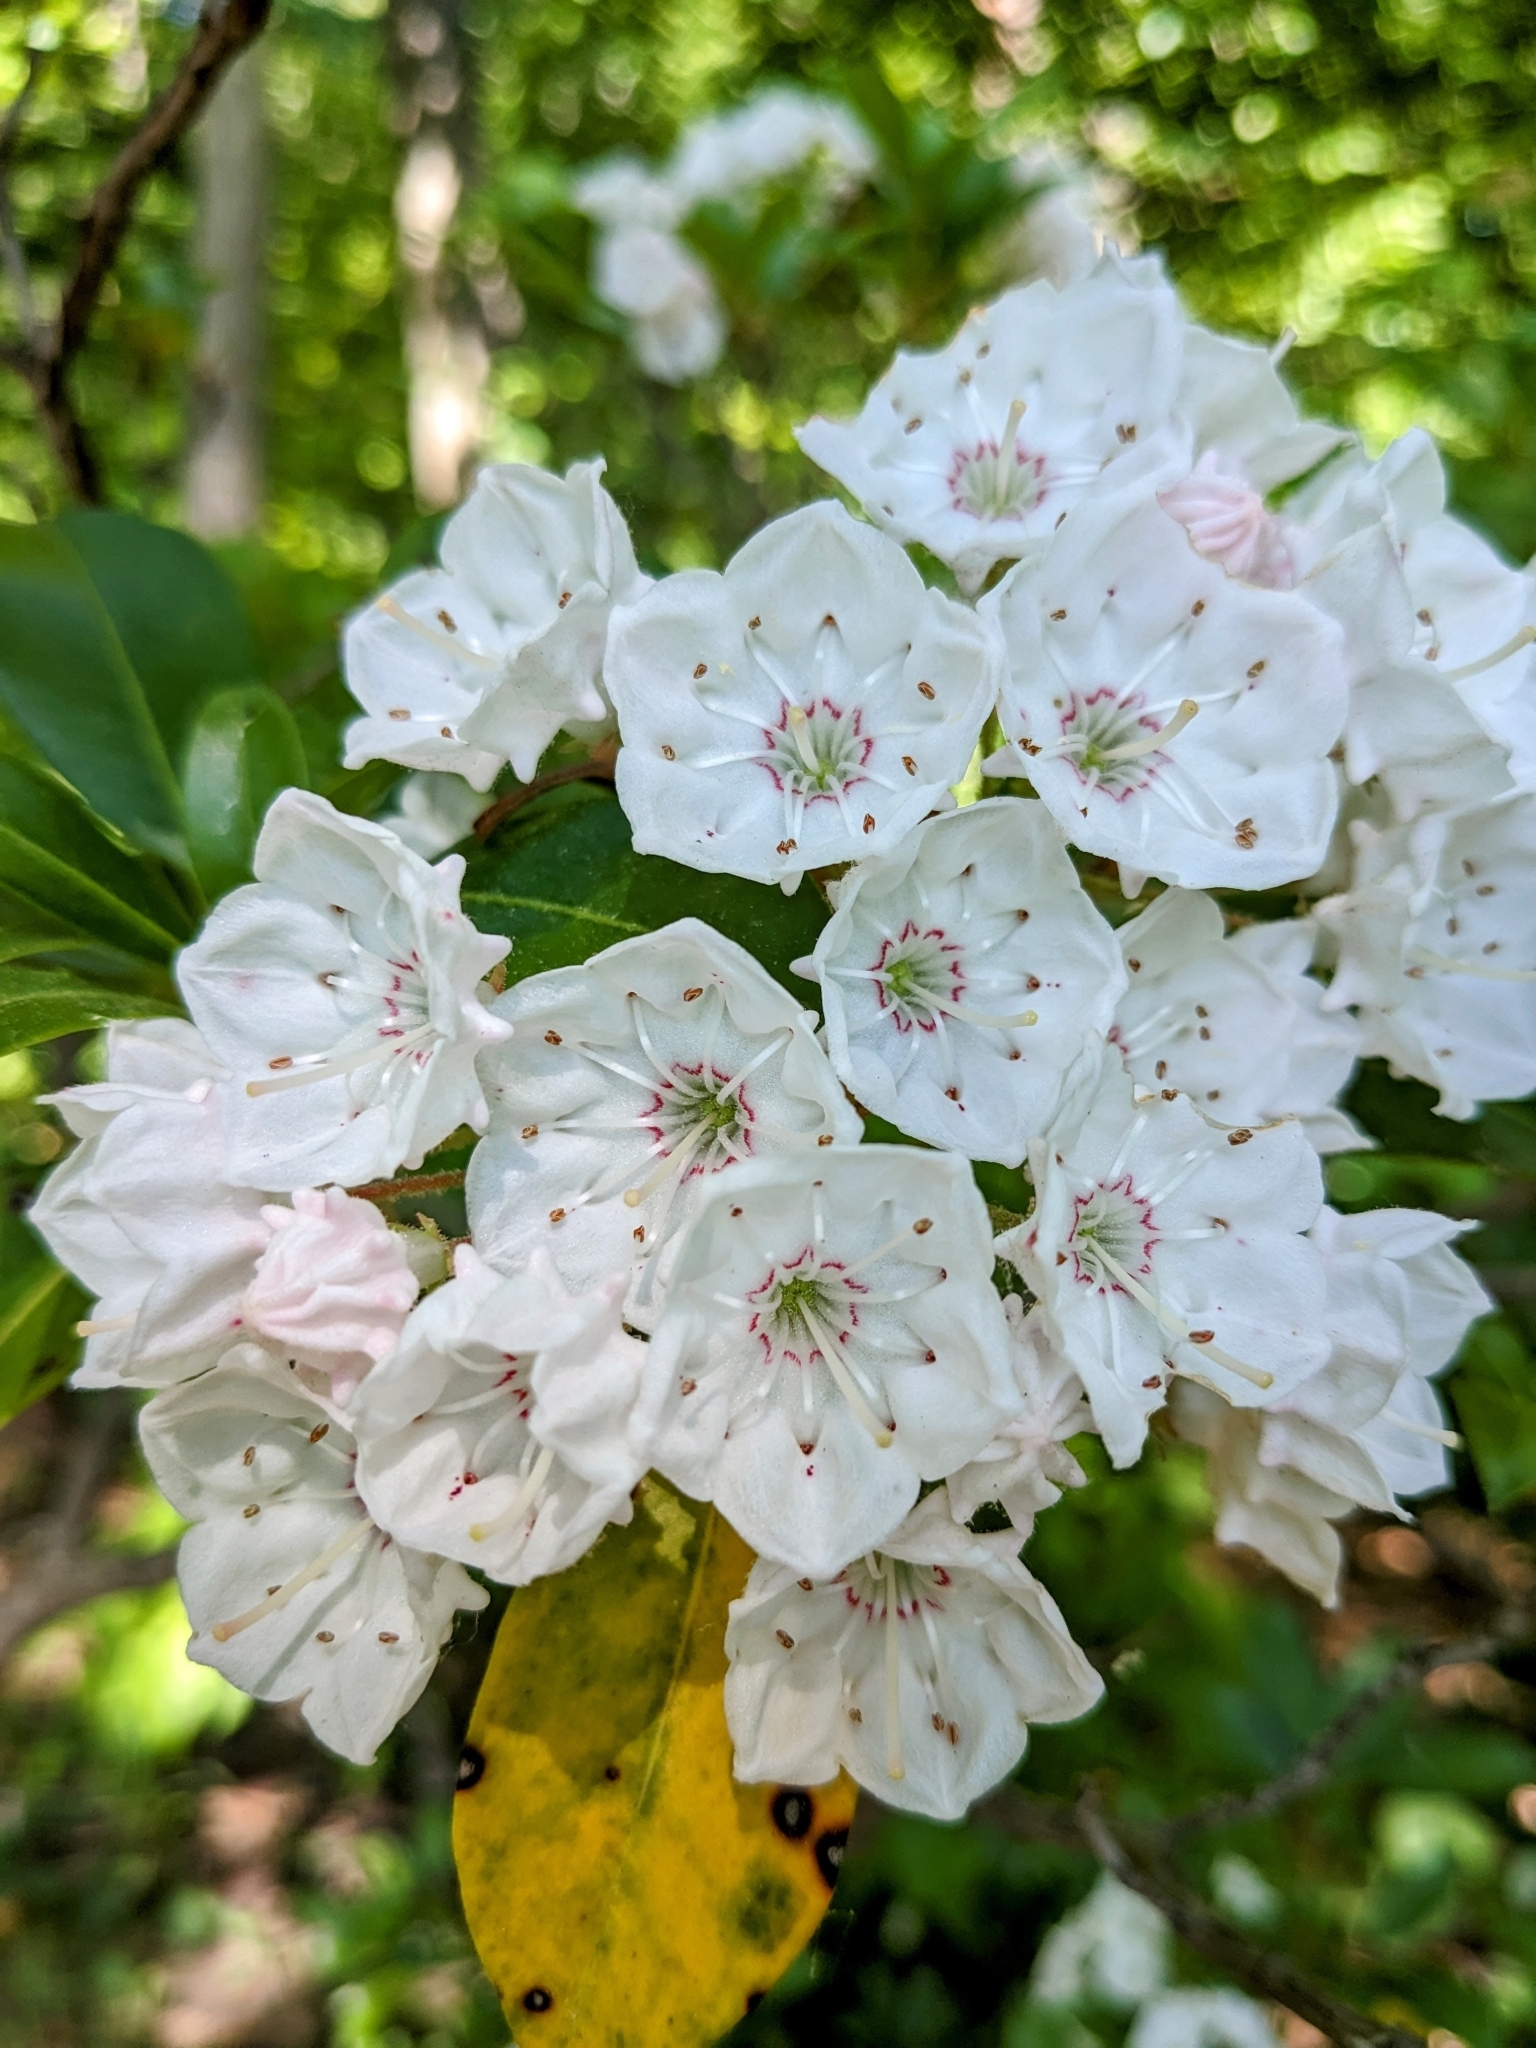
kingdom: Plantae
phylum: Tracheophyta
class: Magnoliopsida
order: Ericales
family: Ericaceae
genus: Kalmia
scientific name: Kalmia latifolia
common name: Mountain-laurel
